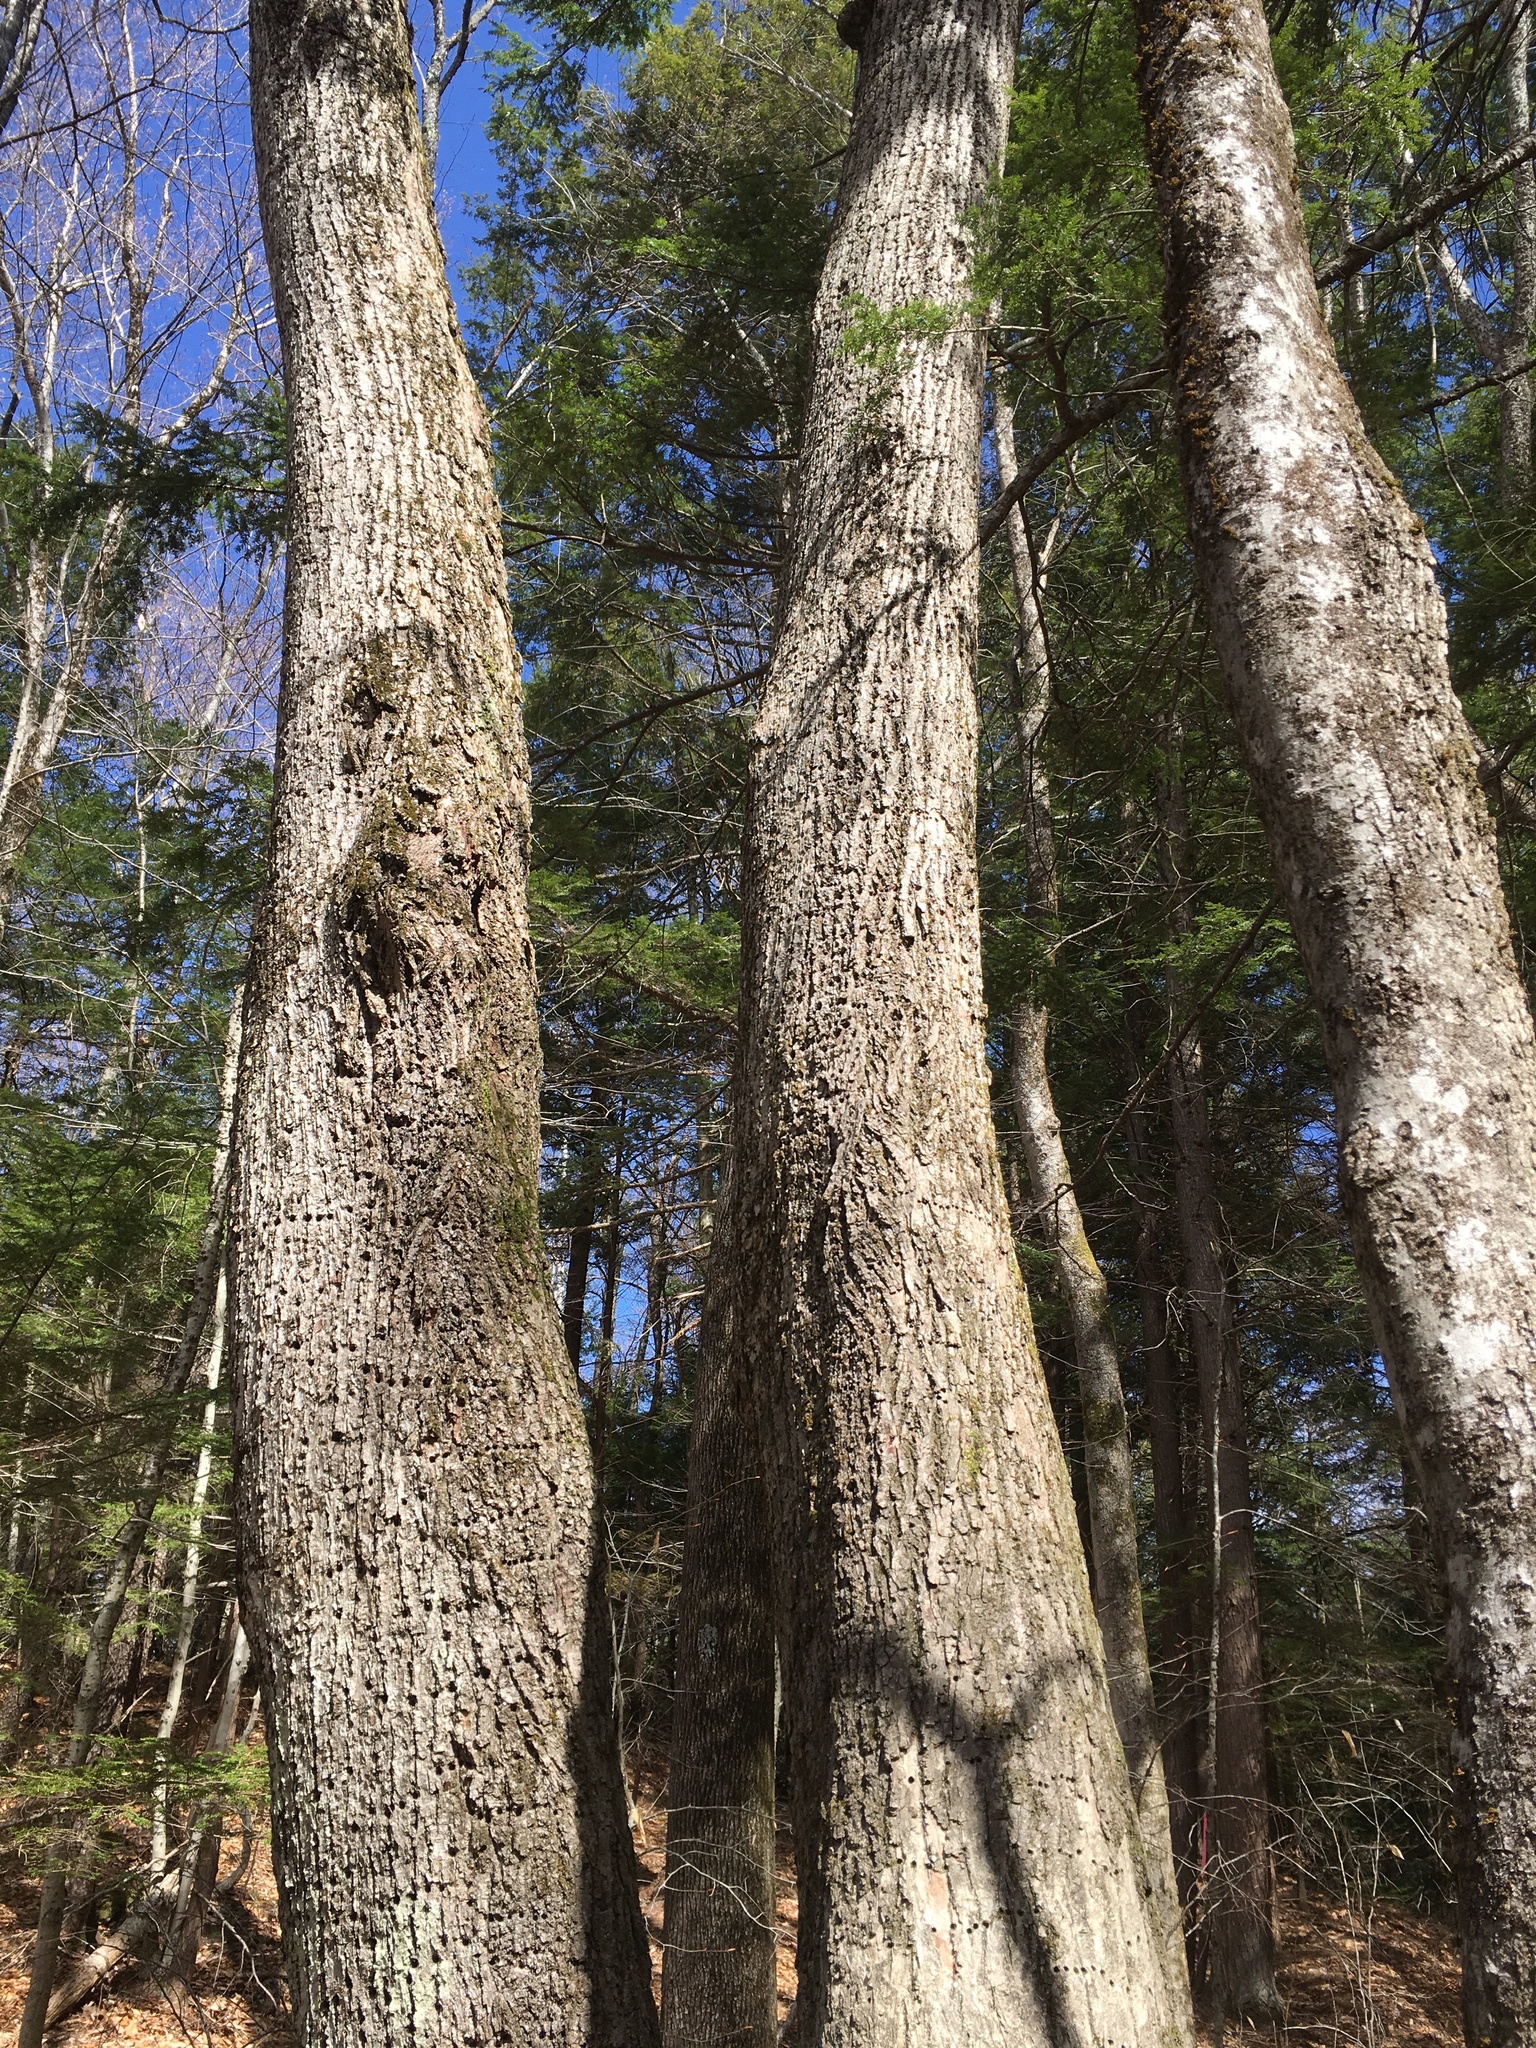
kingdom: Plantae
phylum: Tracheophyta
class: Magnoliopsida
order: Malvales
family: Malvaceae
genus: Tilia
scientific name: Tilia americana
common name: Basswood
